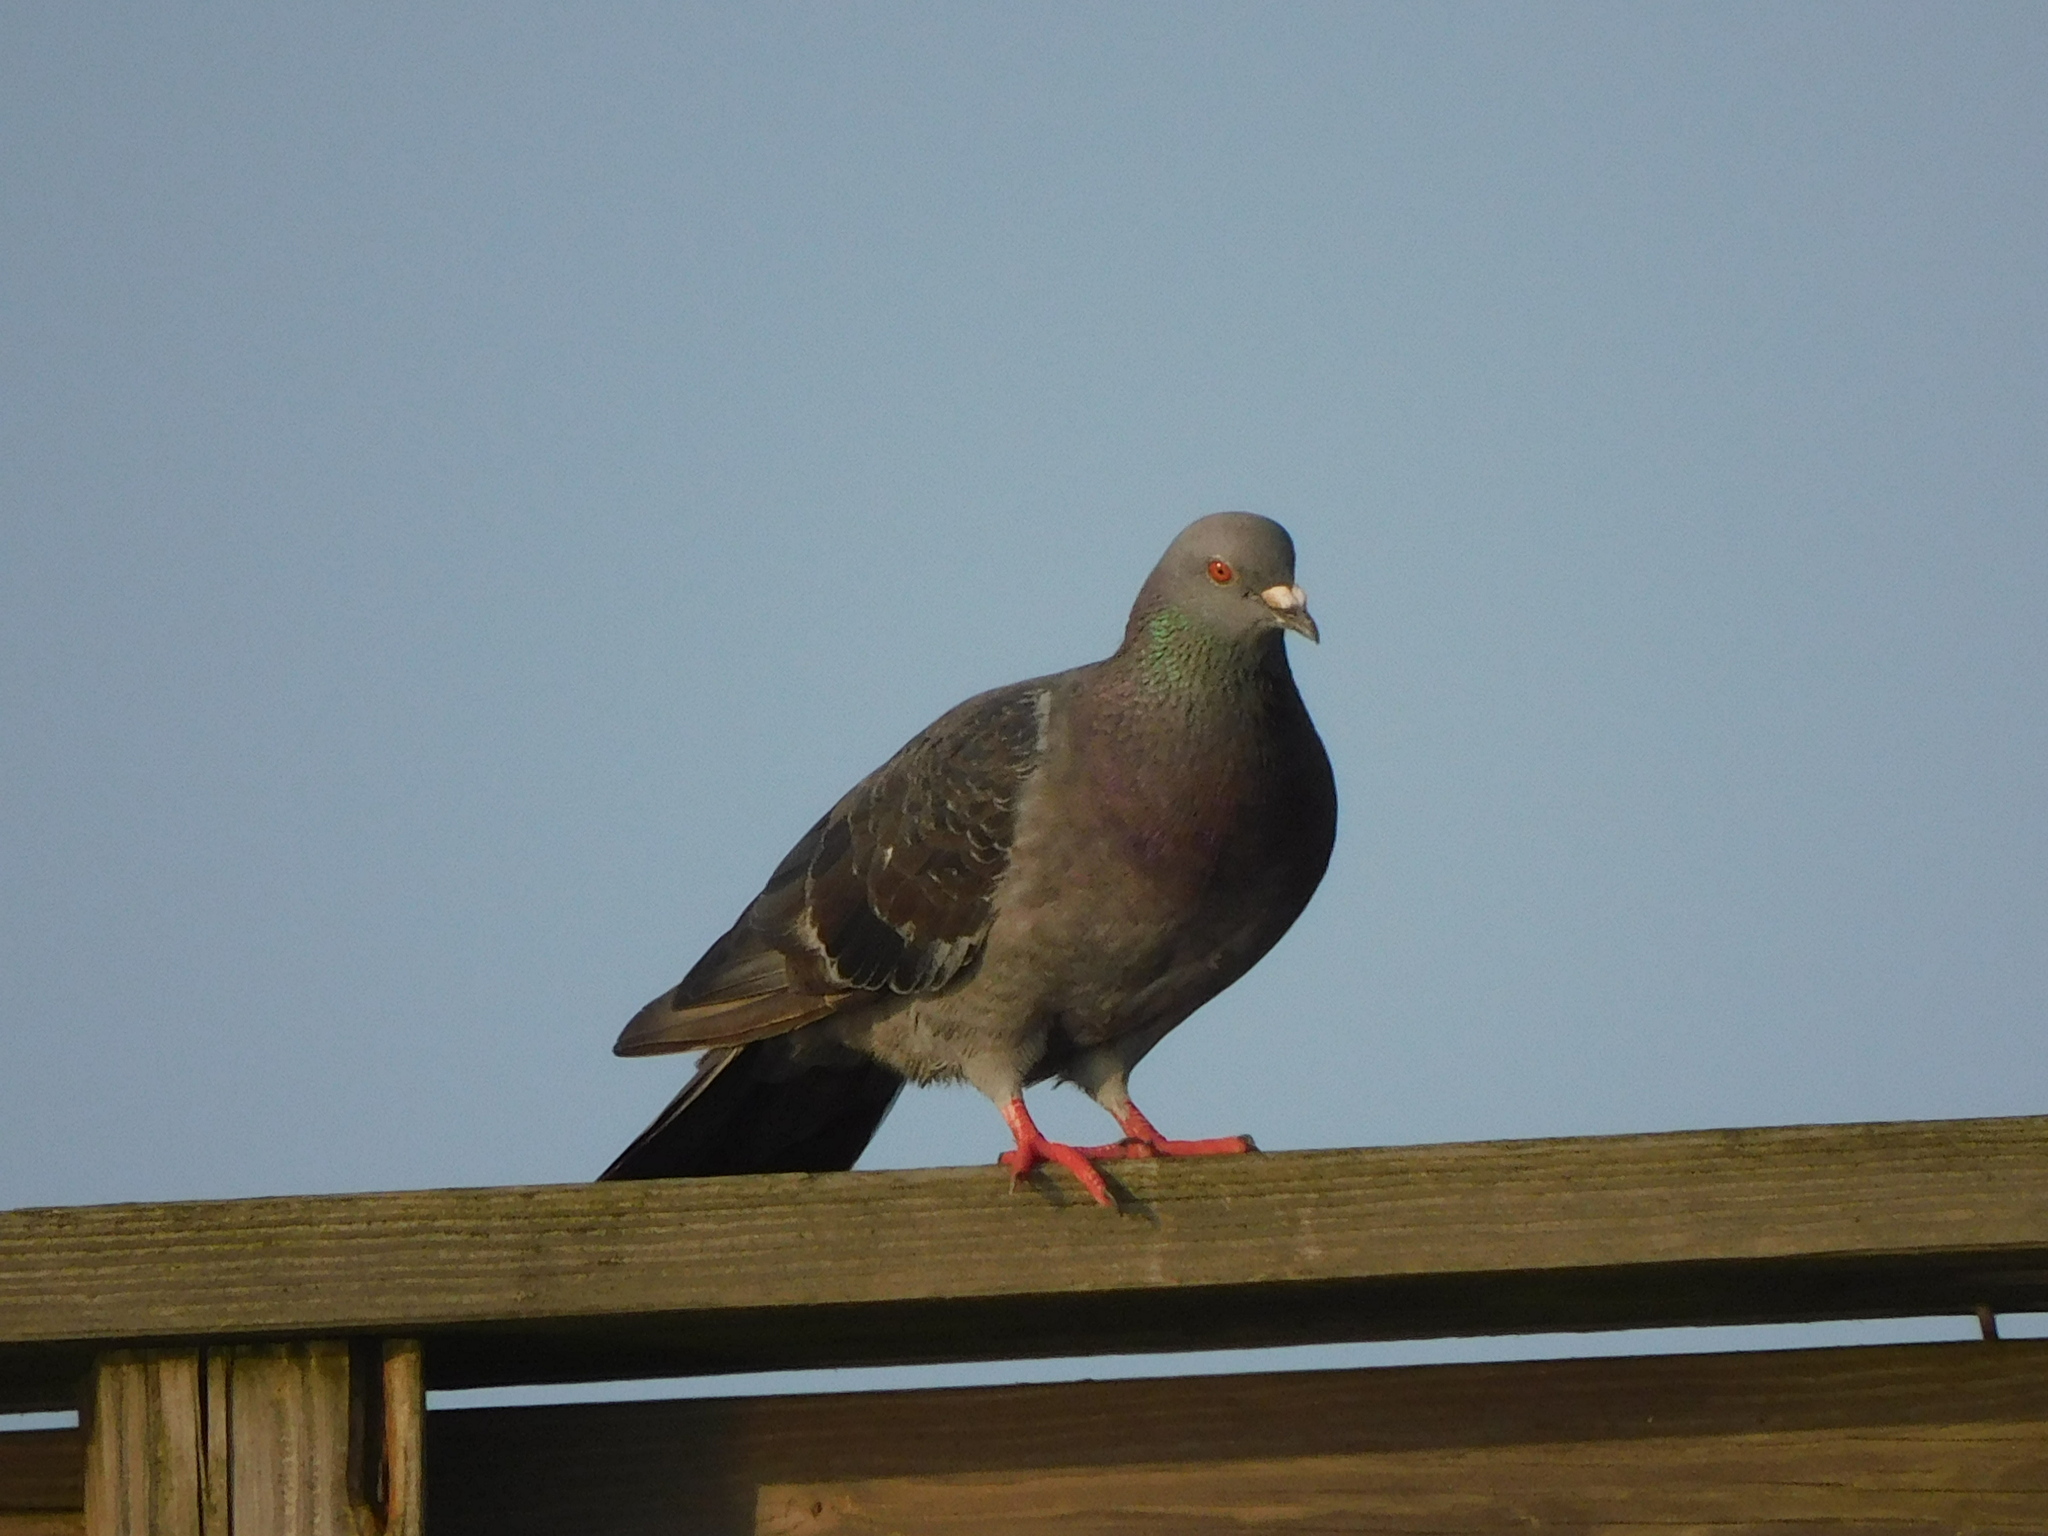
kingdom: Animalia
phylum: Chordata
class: Aves
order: Columbiformes
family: Columbidae
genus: Columba
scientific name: Columba livia
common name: Rock pigeon
